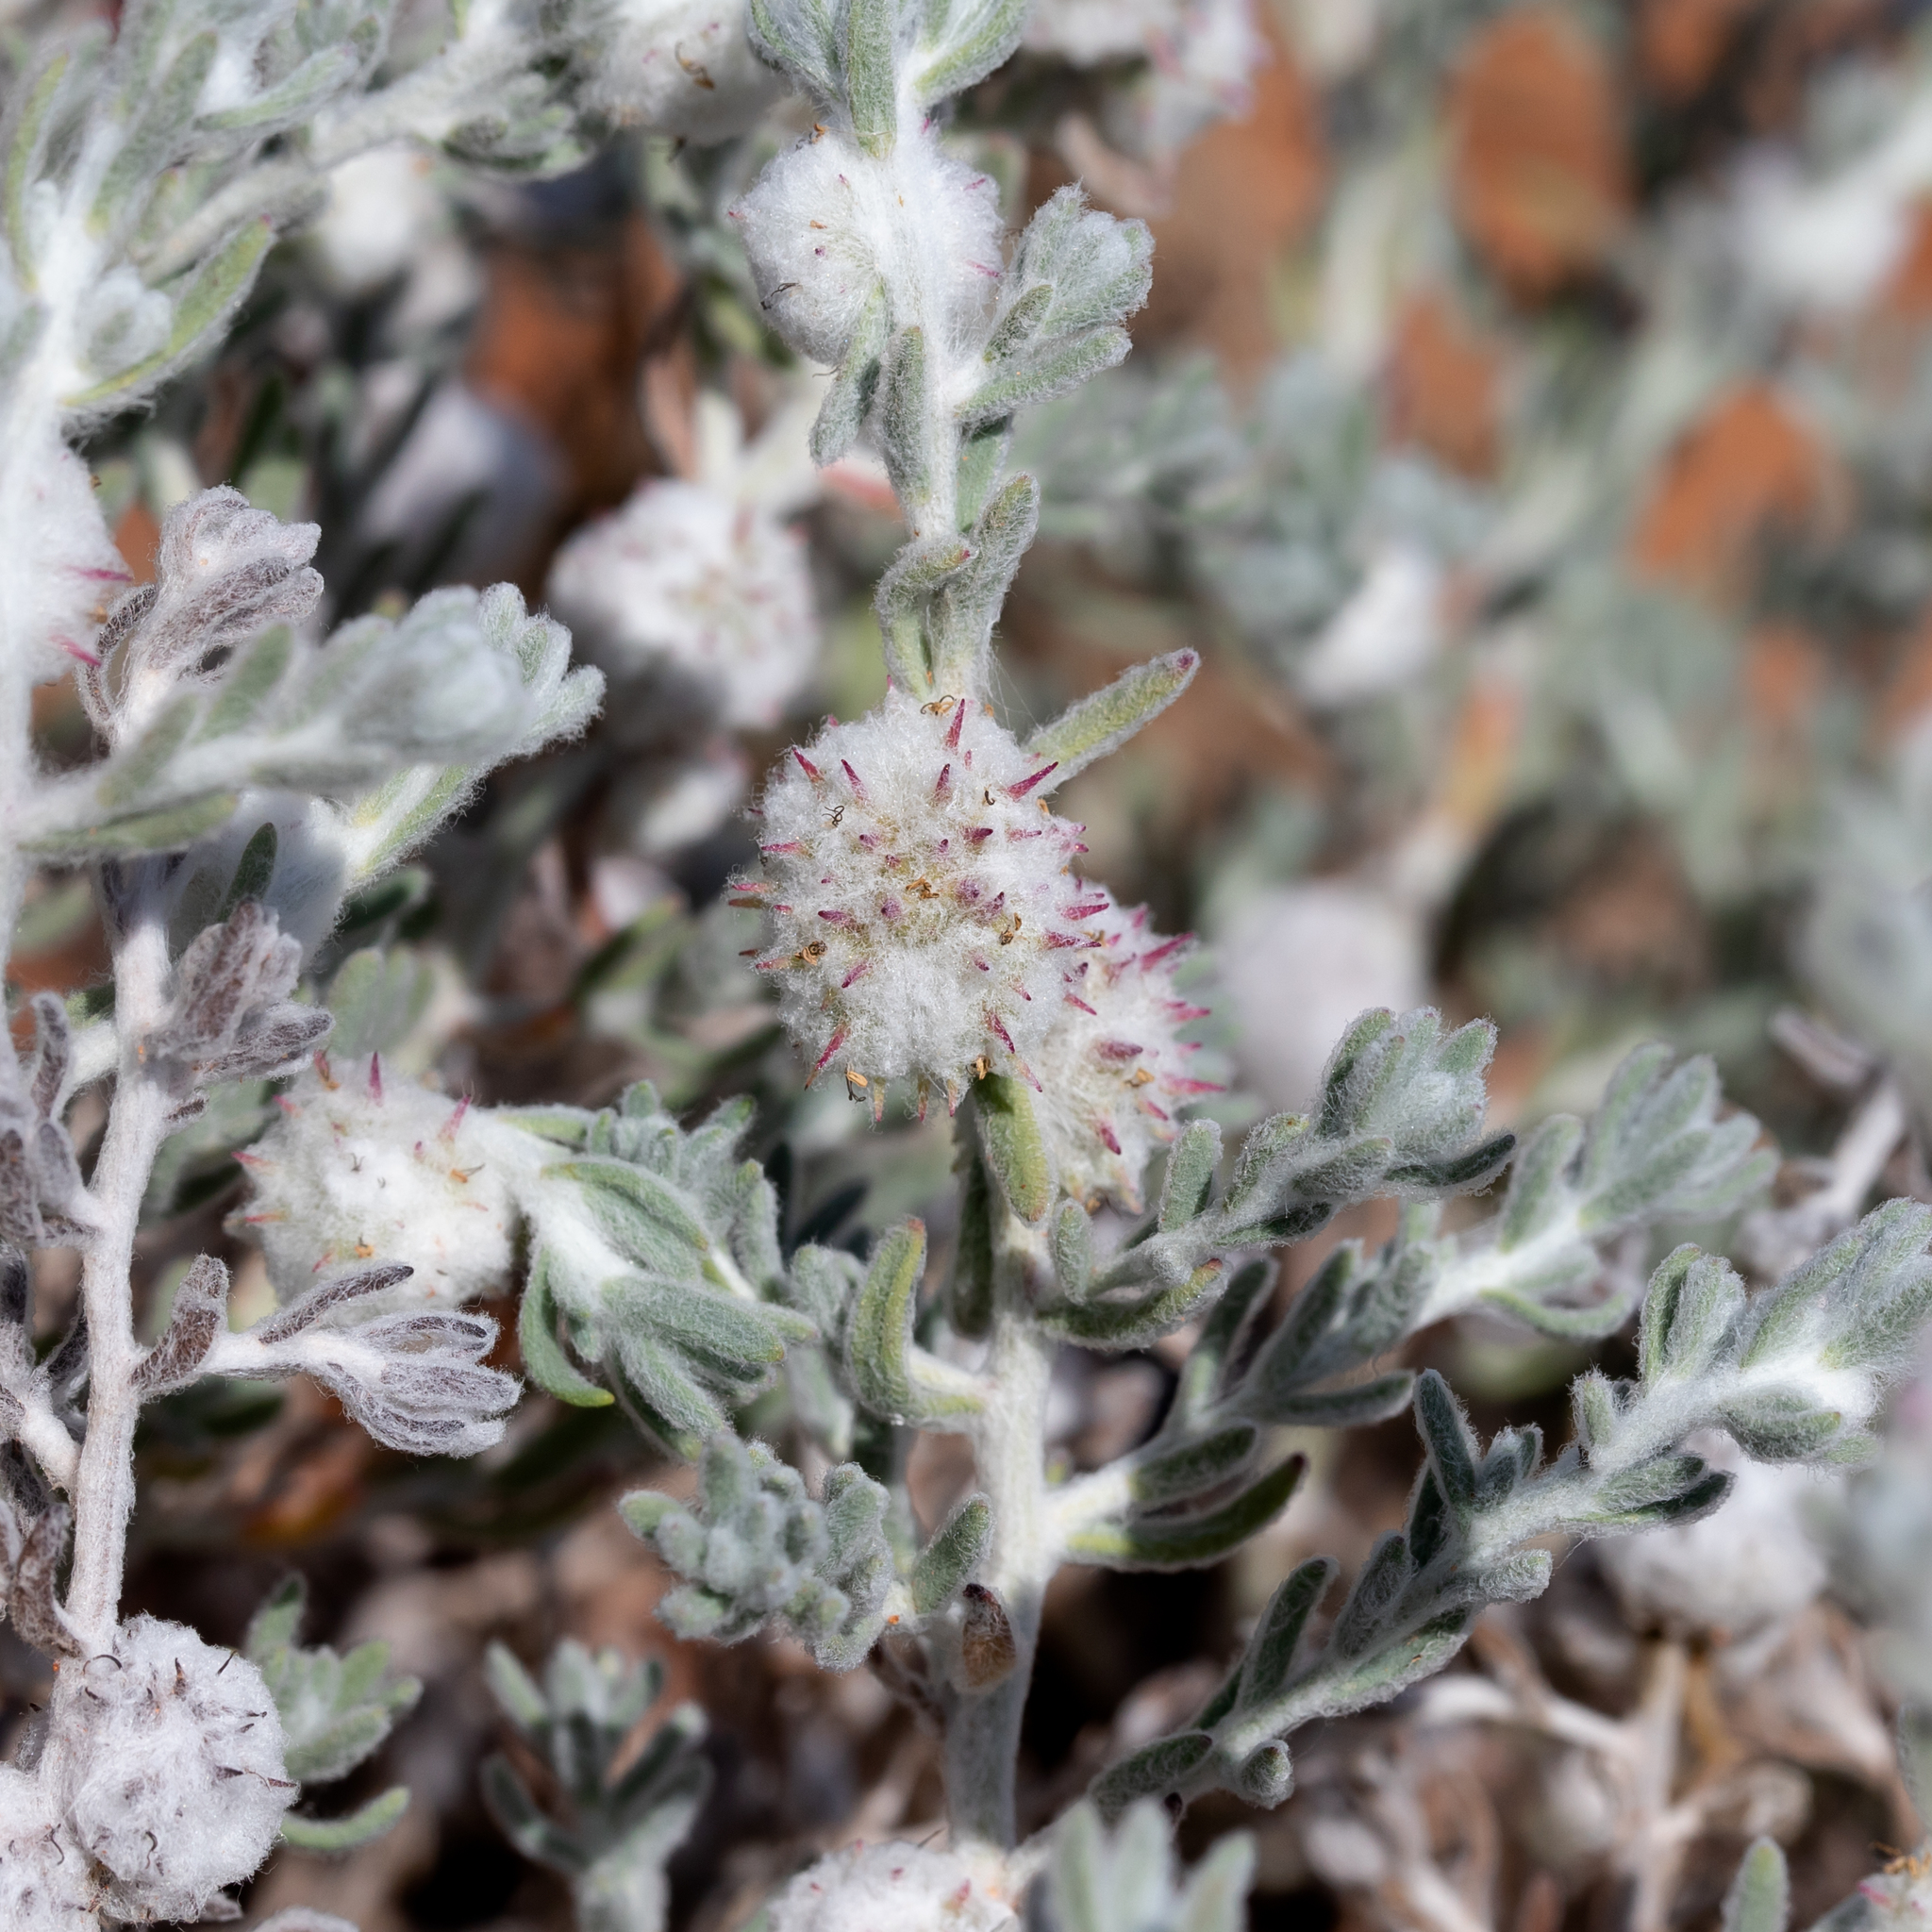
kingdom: Plantae
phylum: Tracheophyta
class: Magnoliopsida
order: Caryophyllales
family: Amaranthaceae
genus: Dissocarpus
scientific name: Dissocarpus paradoxus
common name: Bur-saltbush
